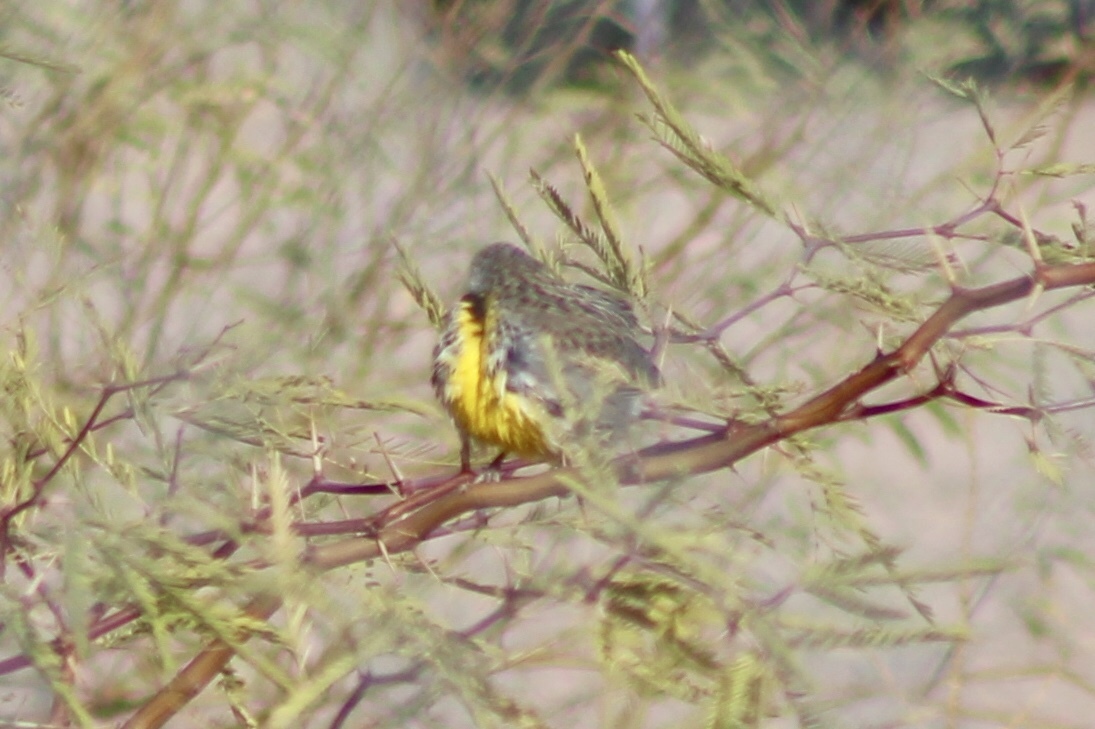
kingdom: Animalia
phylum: Chordata
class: Aves
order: Passeriformes
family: Icteridae
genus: Sturnella
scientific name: Sturnella neglecta
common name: Western meadowlark
